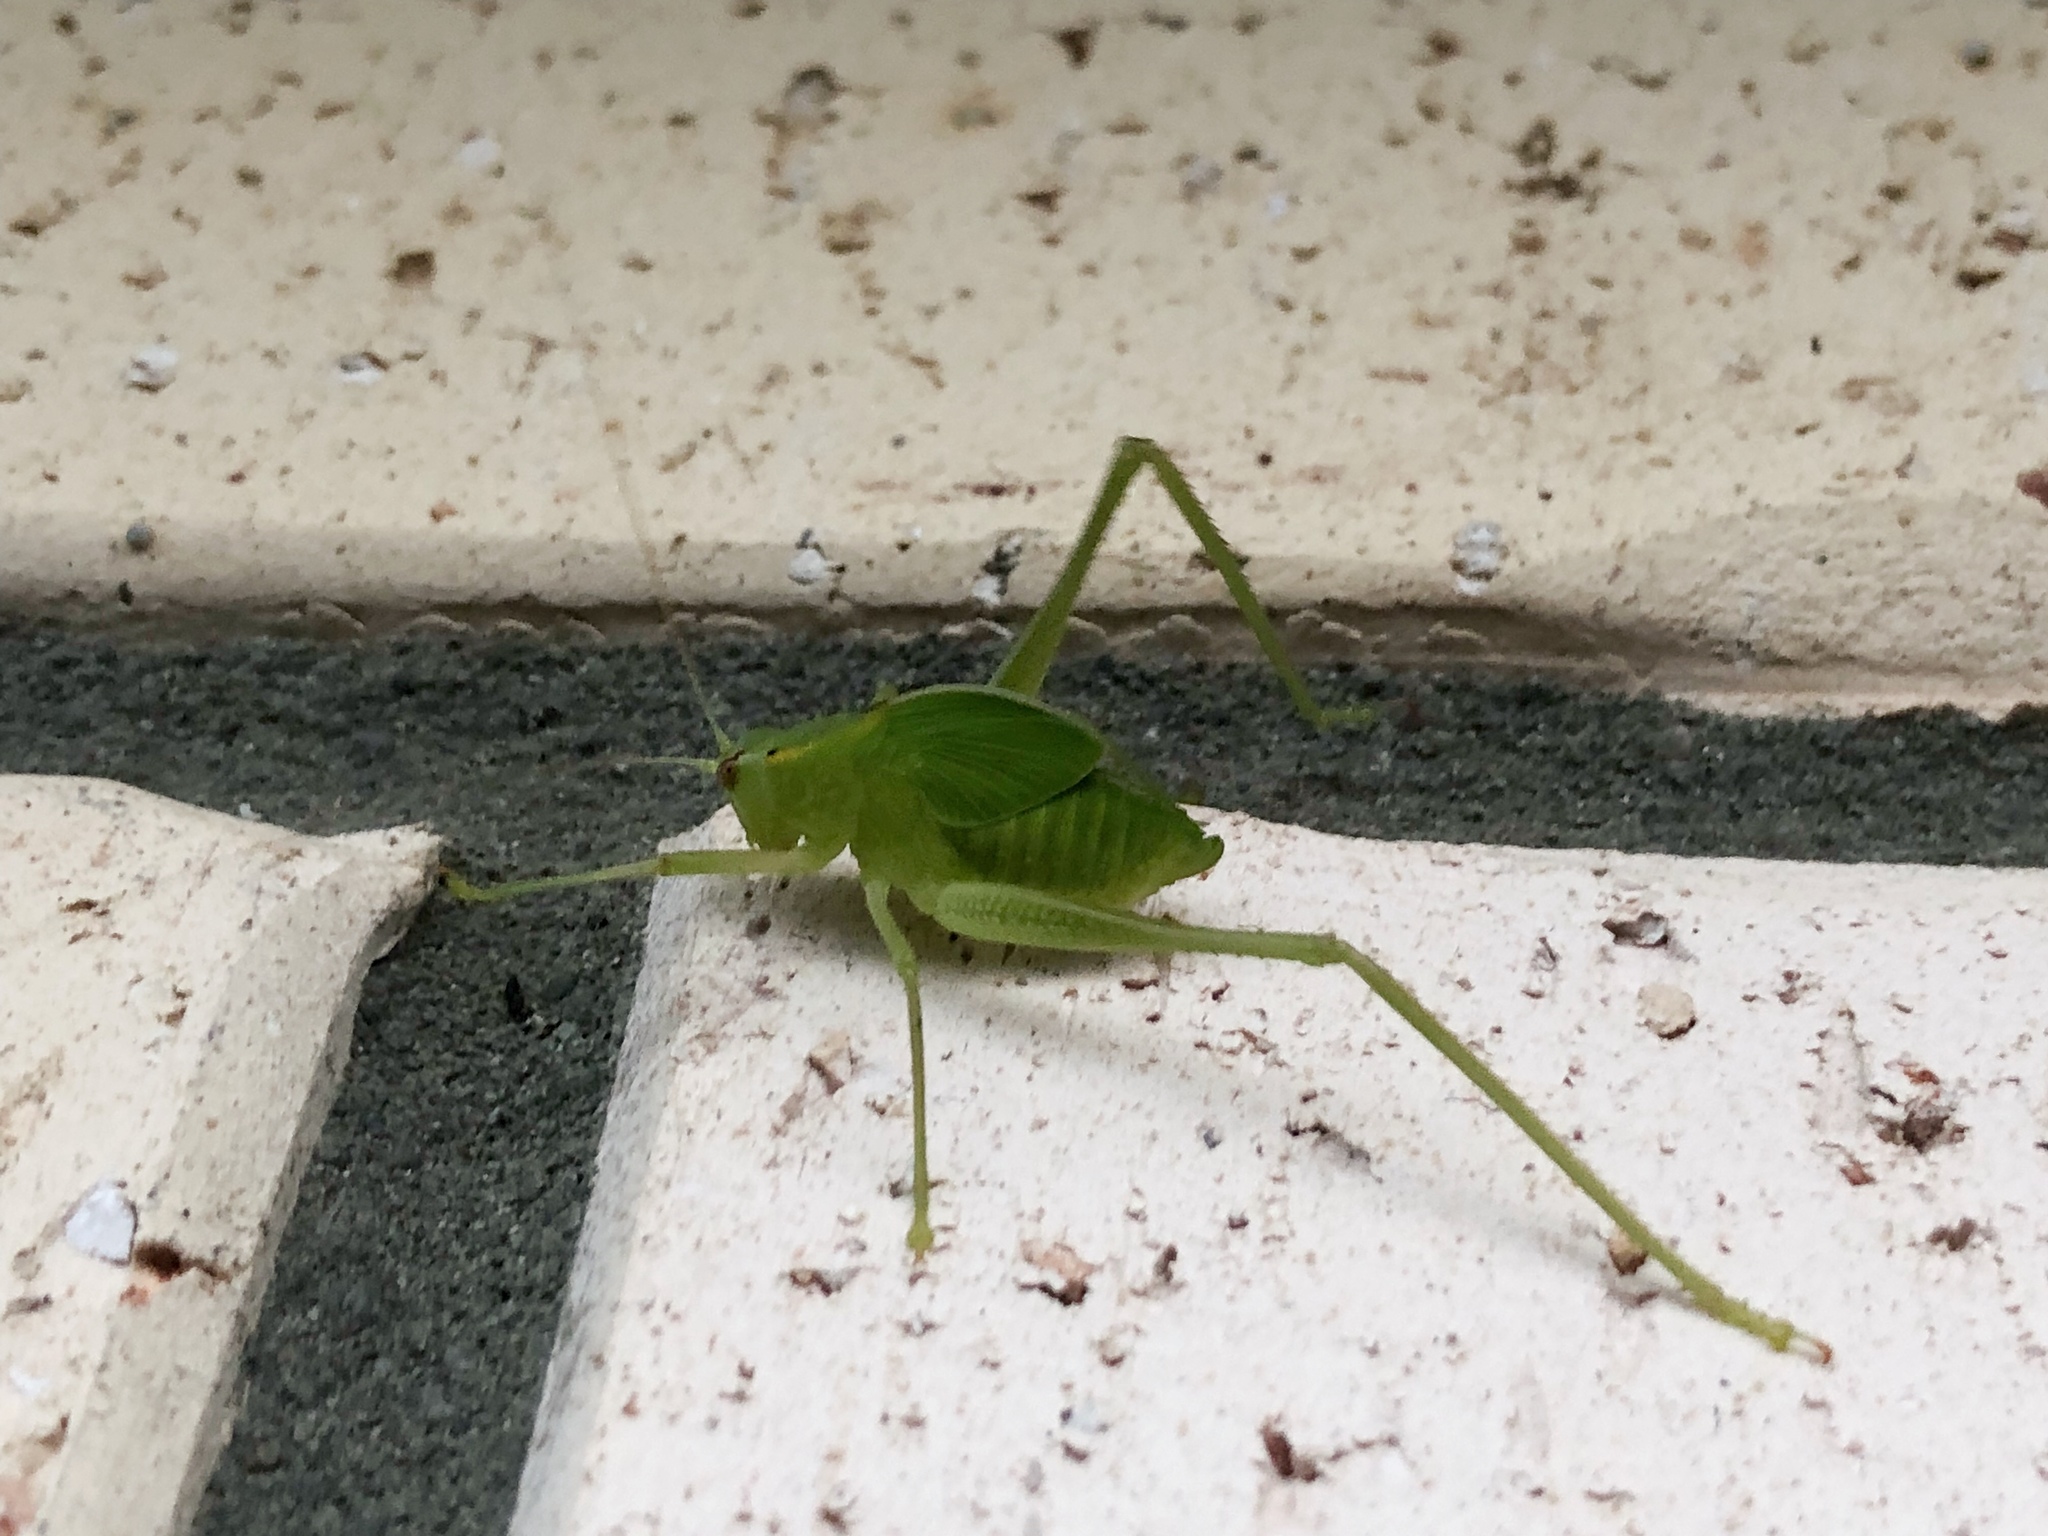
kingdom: Animalia
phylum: Arthropoda
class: Insecta
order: Orthoptera
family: Tettigoniidae
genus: Caedicia
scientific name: Caedicia simplex
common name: Common garden katydid
